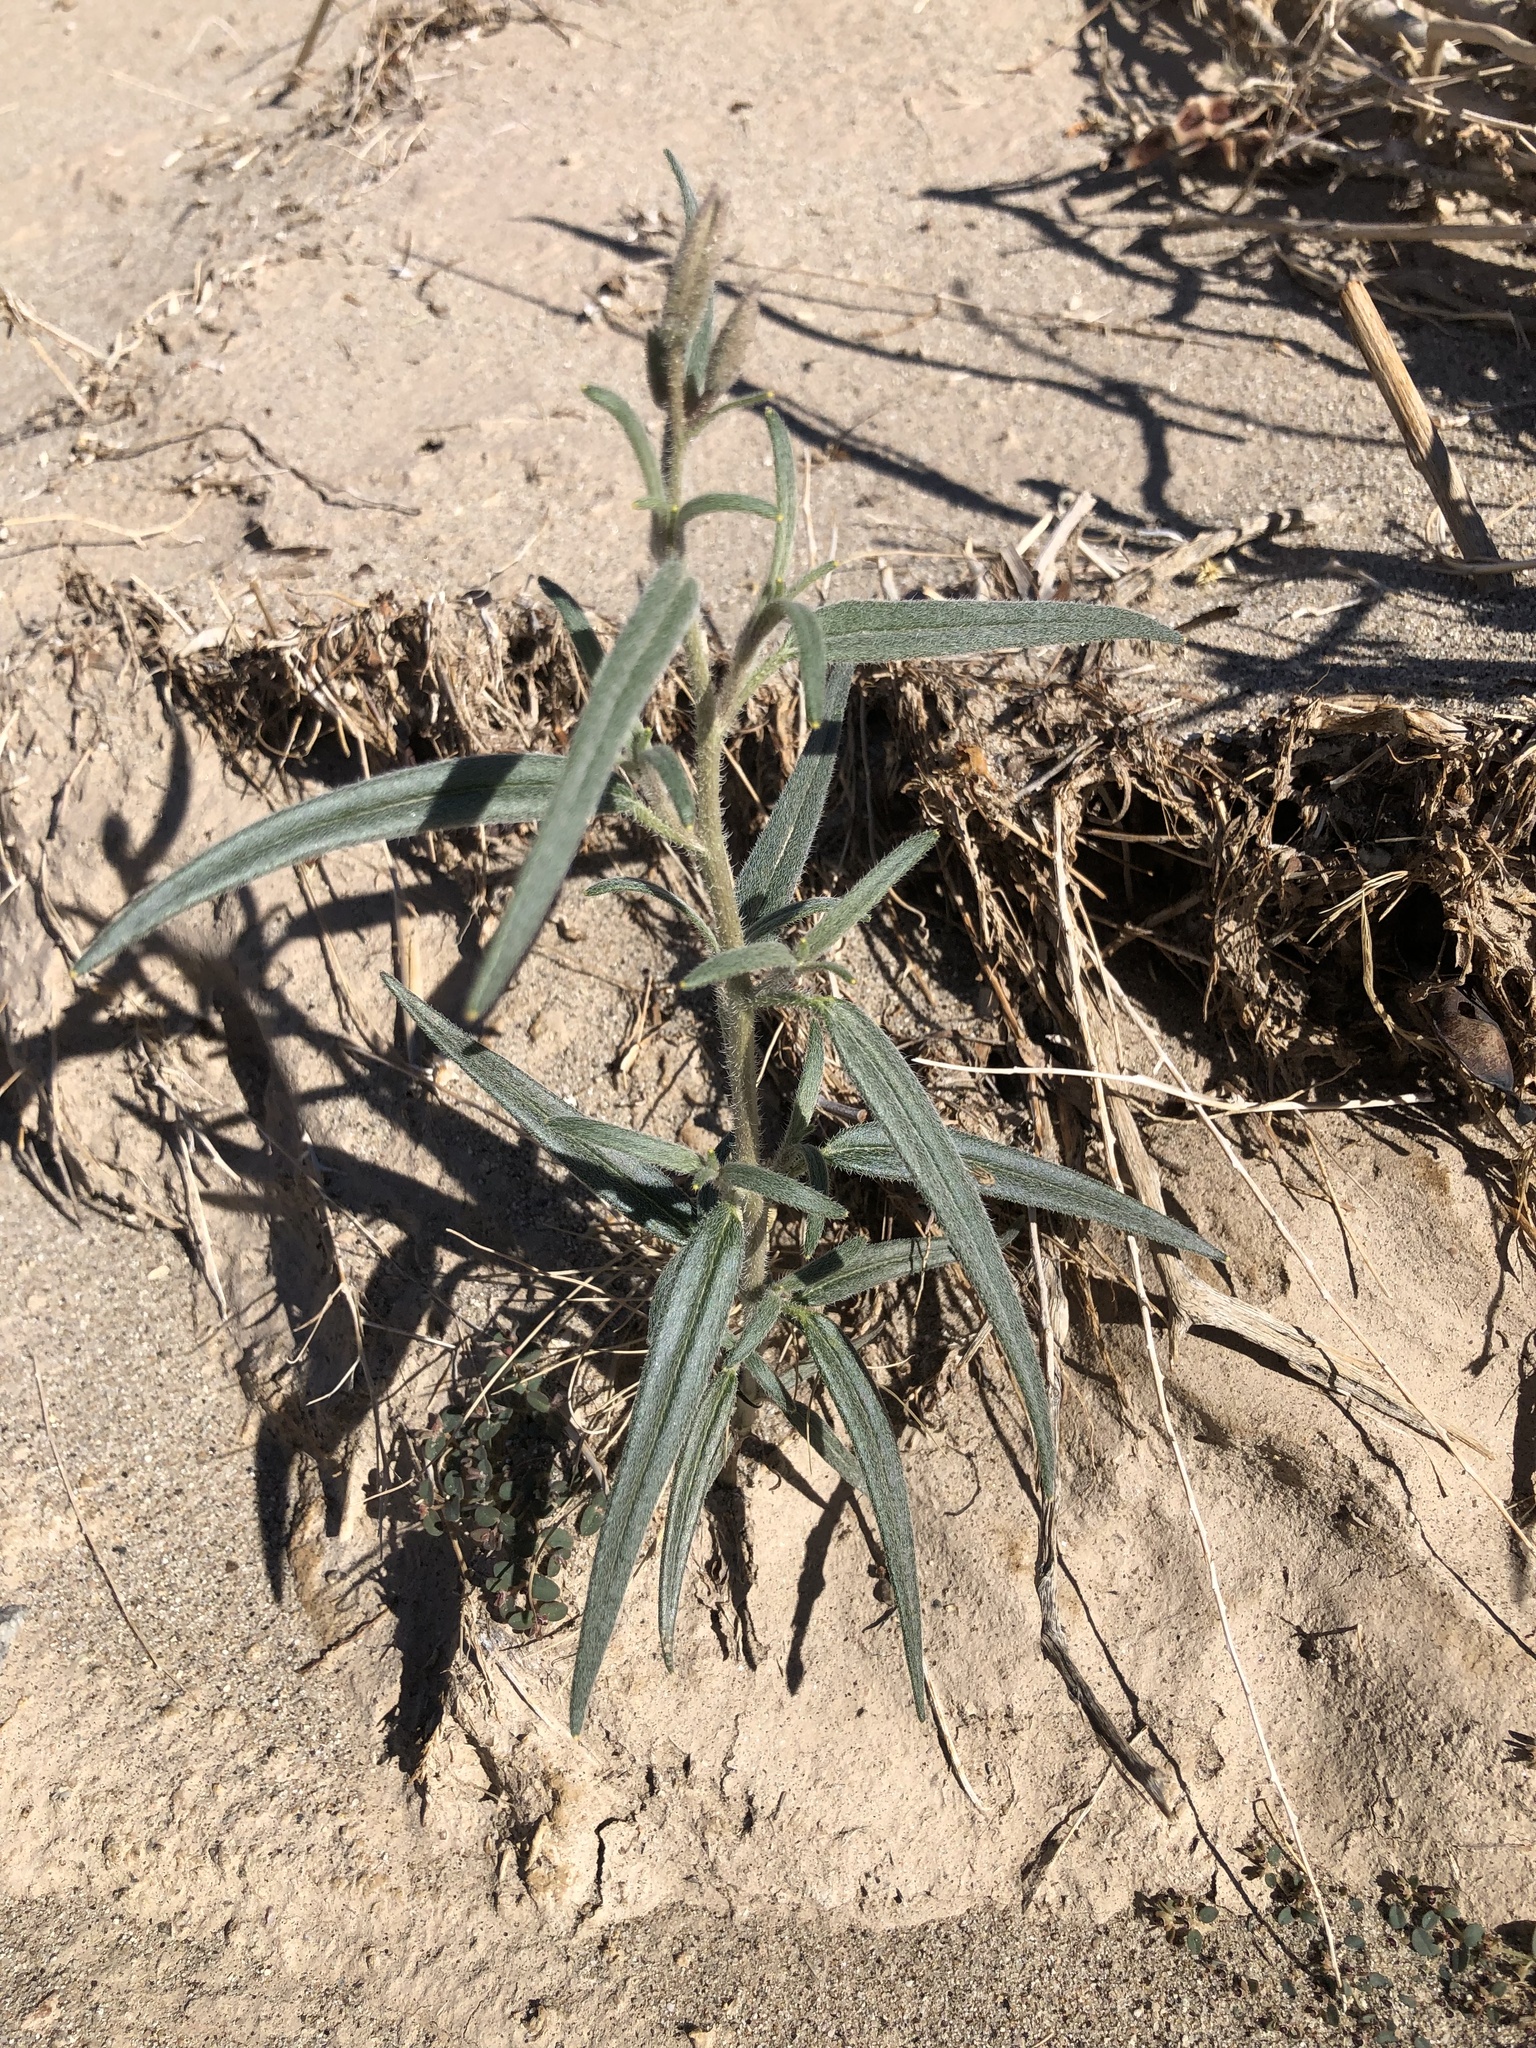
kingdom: Plantae
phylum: Tracheophyta
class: Magnoliopsida
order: Asterales
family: Asteraceae
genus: Palafoxia
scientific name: Palafoxia arida
